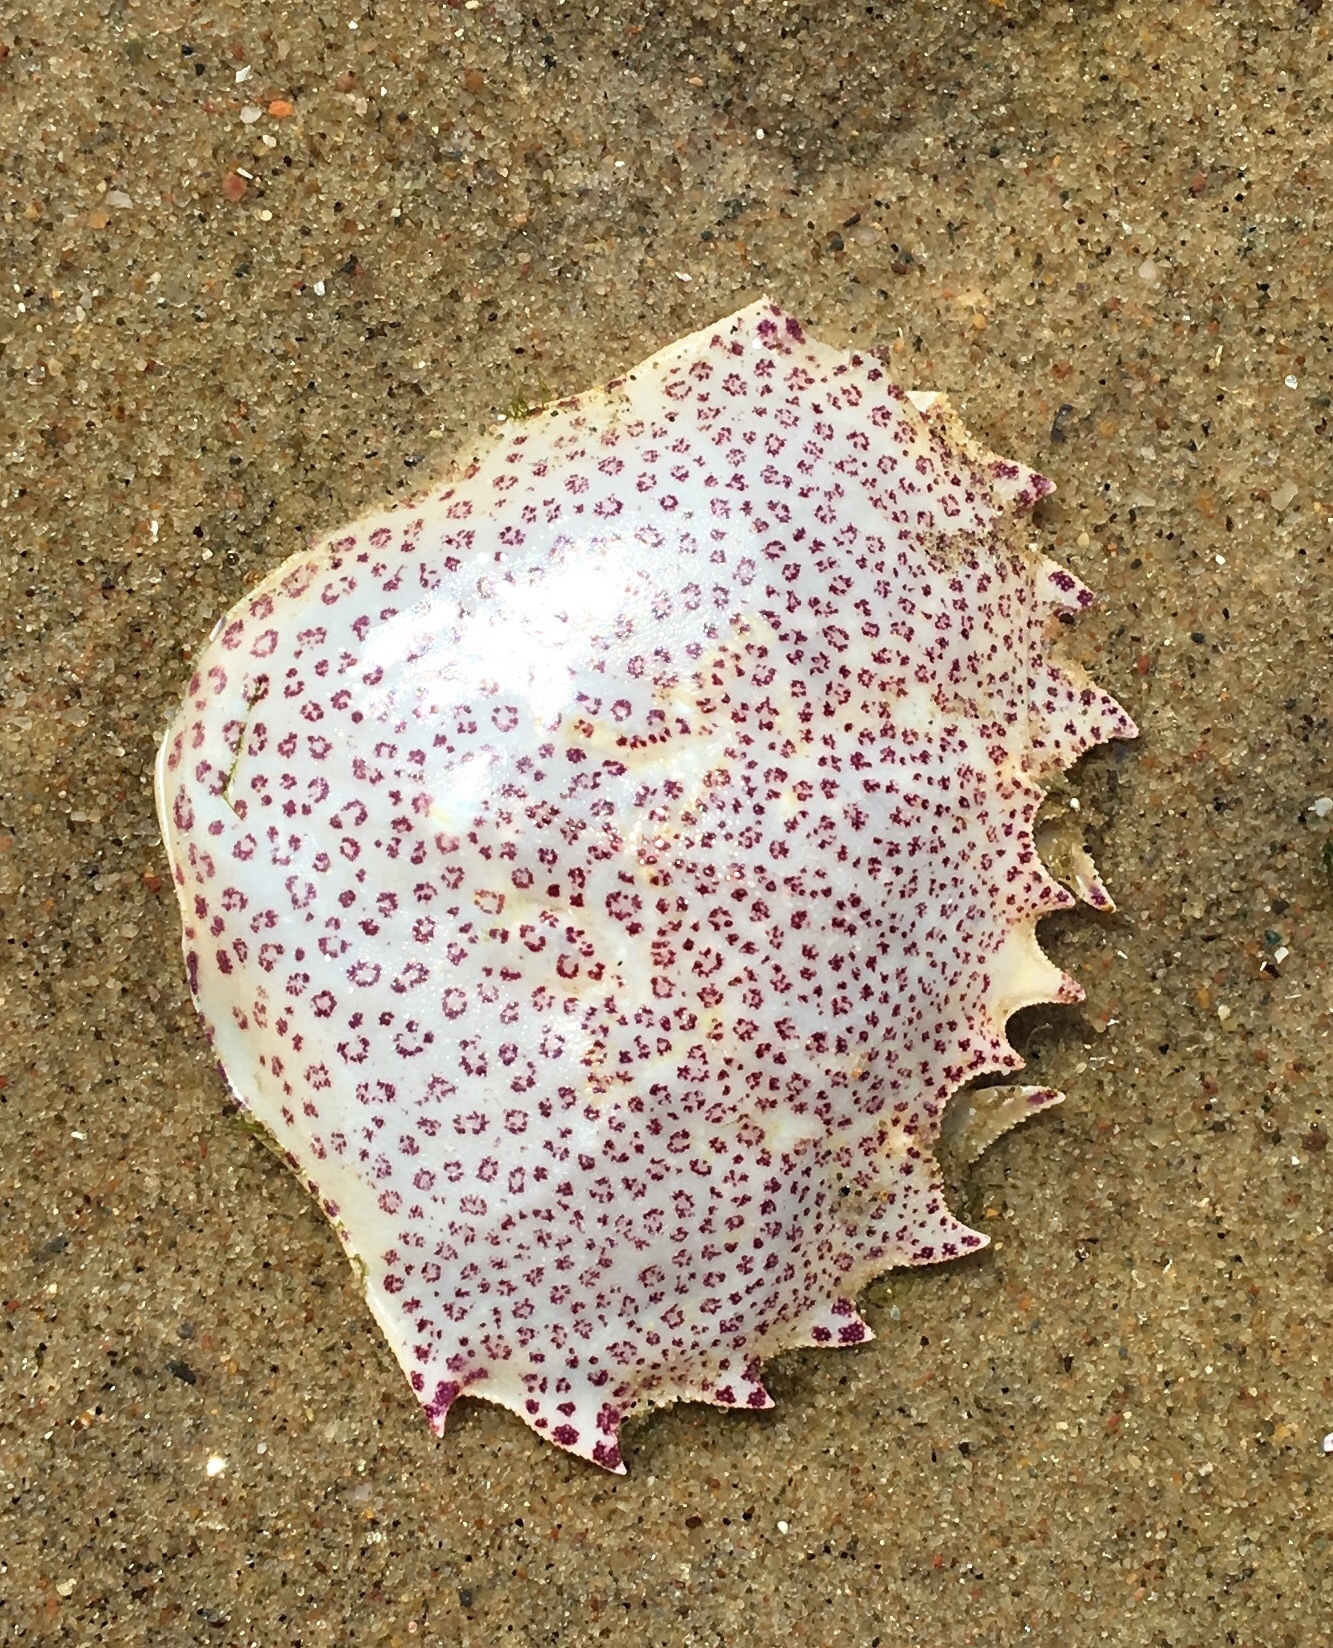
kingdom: Animalia
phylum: Arthropoda
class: Malacostraca
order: Decapoda
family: Ovalipidae
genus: Ovalipes
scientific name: Ovalipes ocellatus
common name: Lady crab
